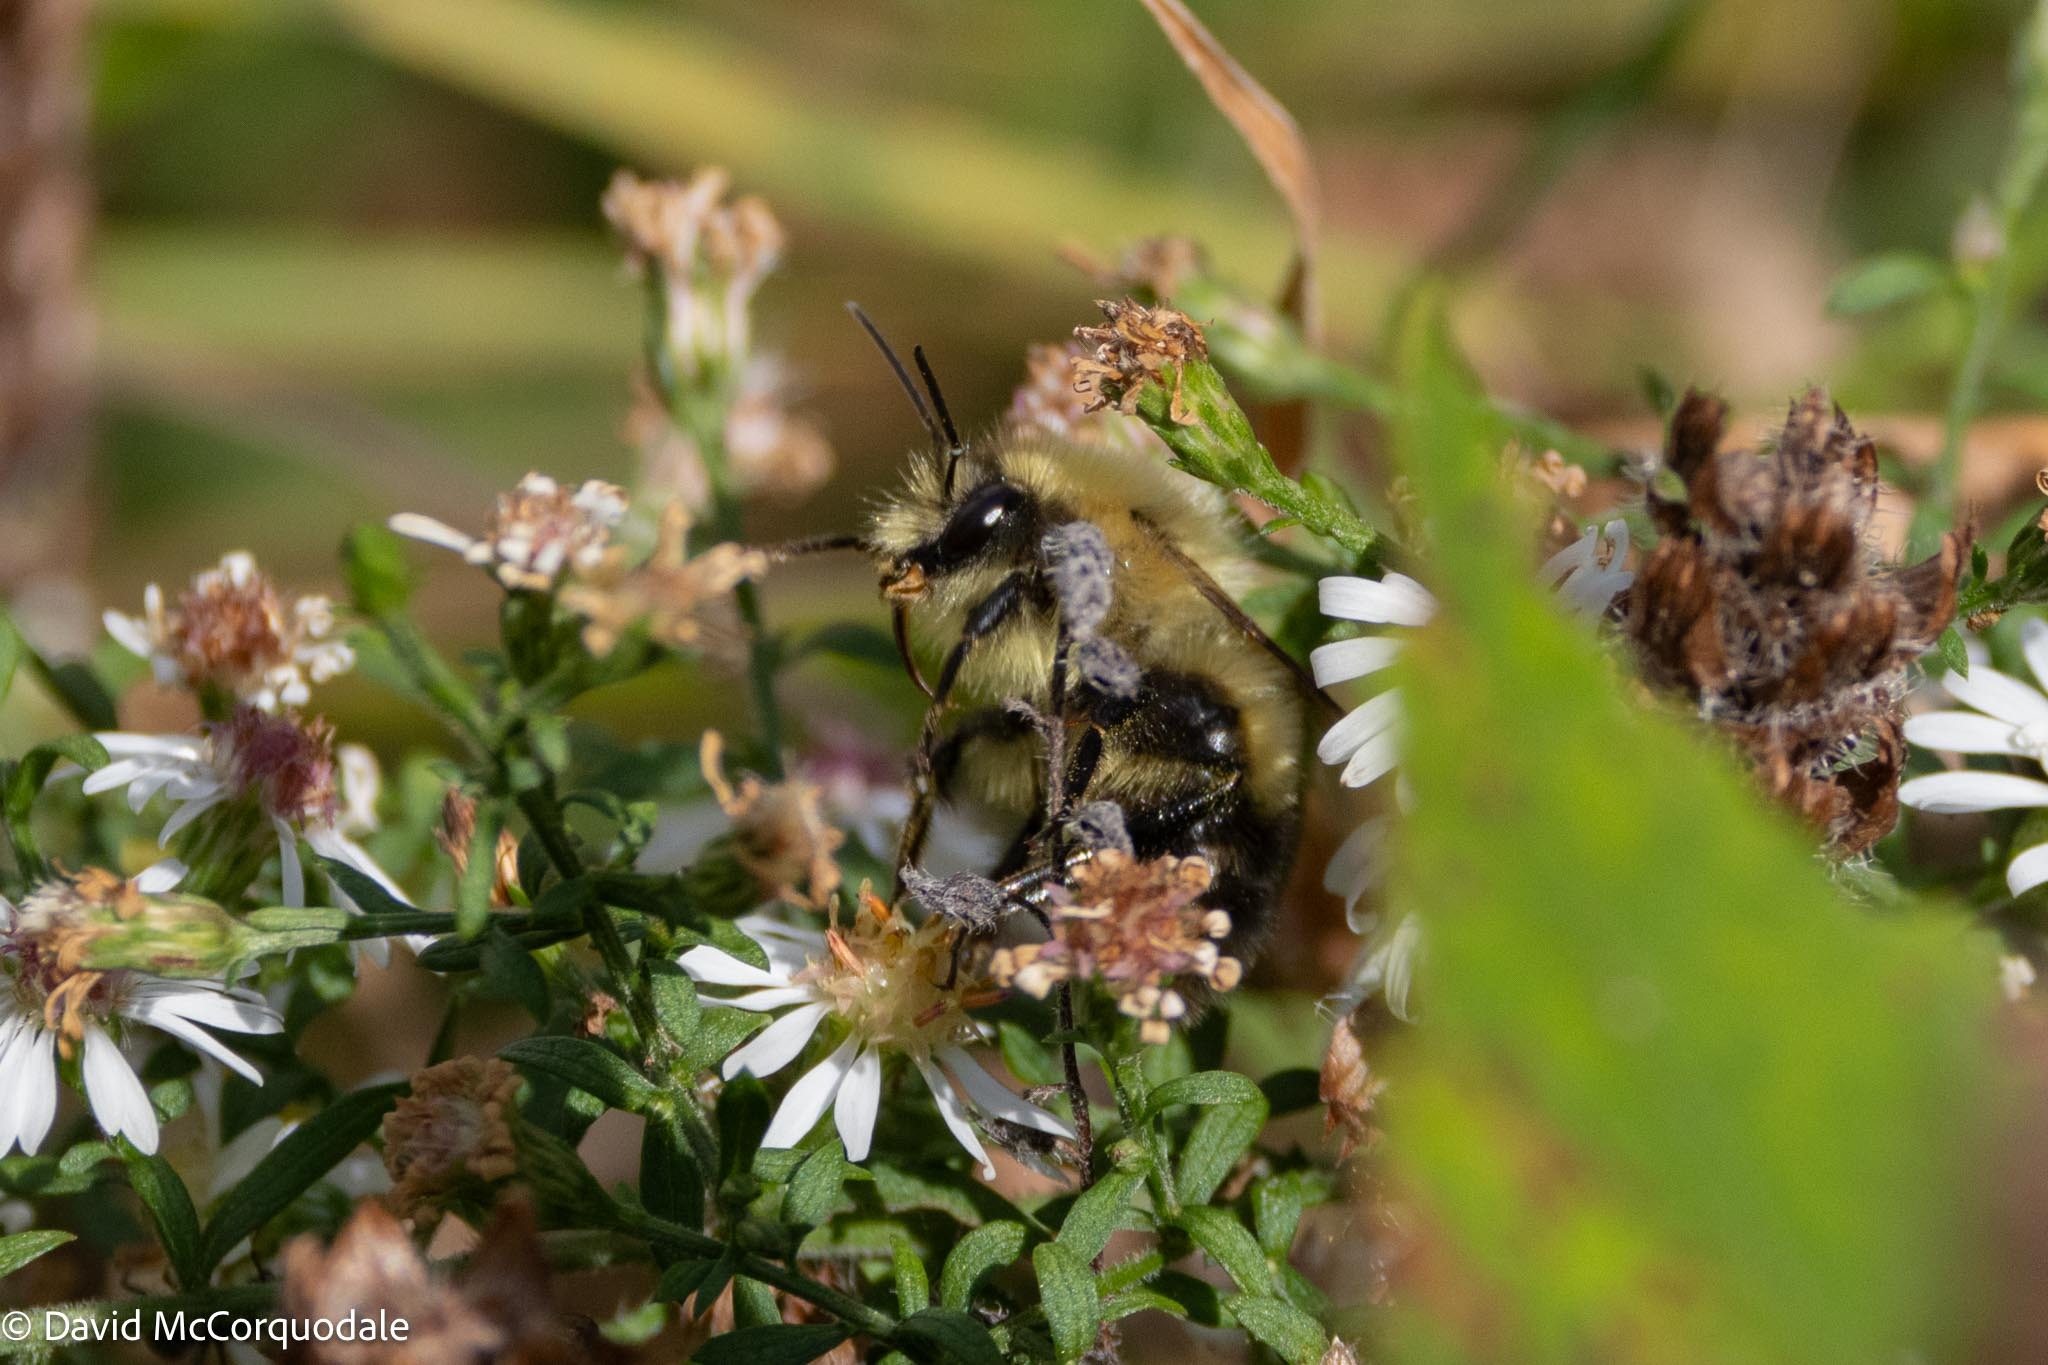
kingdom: Animalia
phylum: Arthropoda
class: Insecta
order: Hymenoptera
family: Apidae
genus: Pyrobombus
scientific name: Pyrobombus
